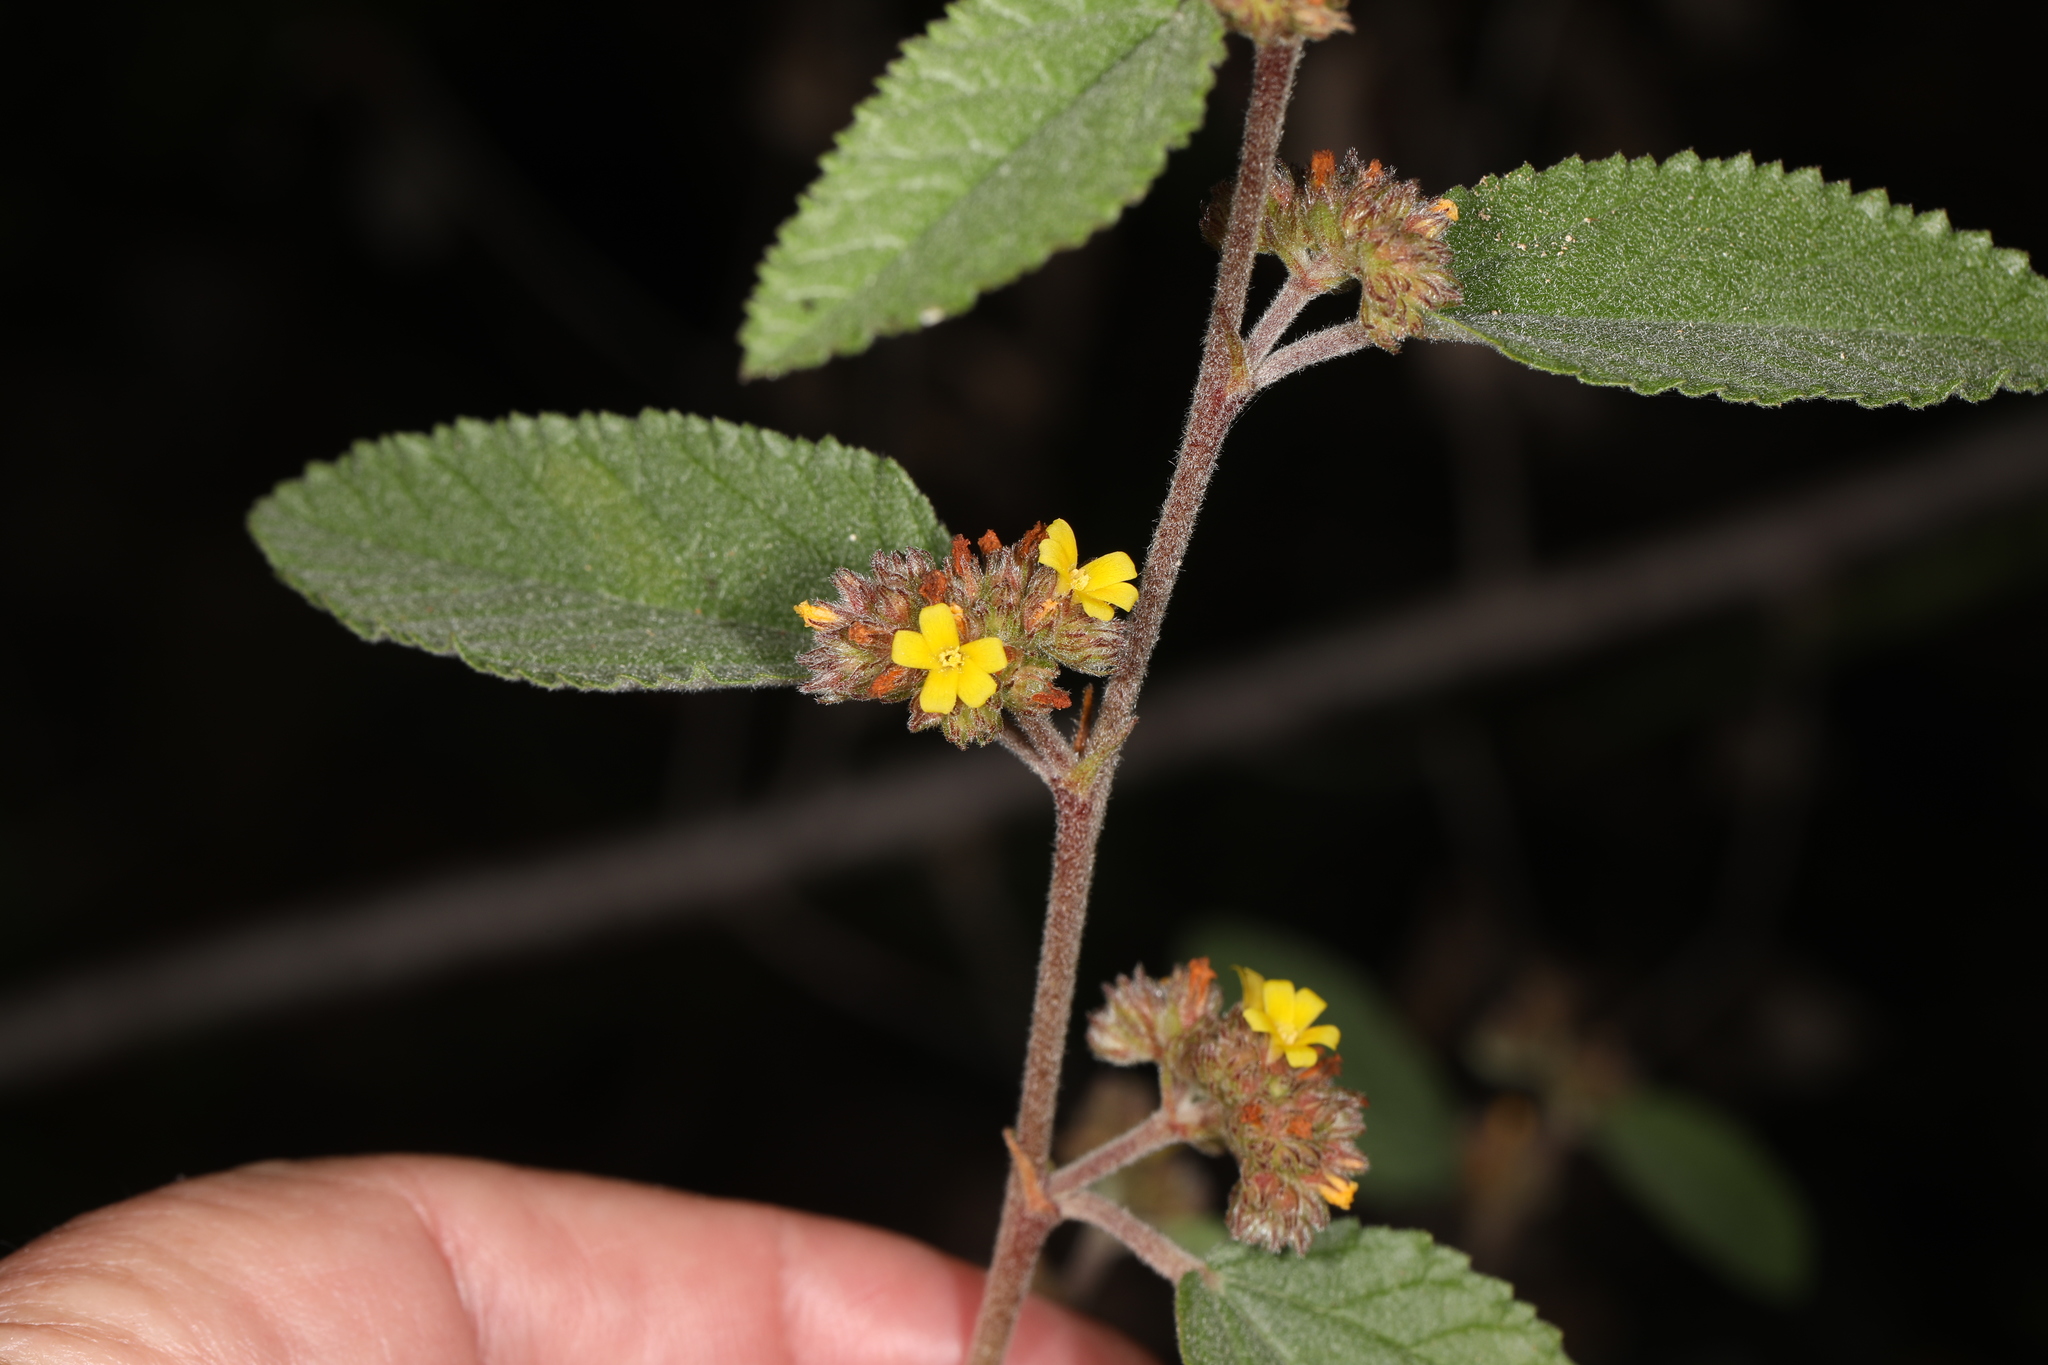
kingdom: Plantae
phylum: Tracheophyta
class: Magnoliopsida
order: Malvales
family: Malvaceae
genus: Waltheria
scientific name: Waltheria indica
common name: Leather-coat
